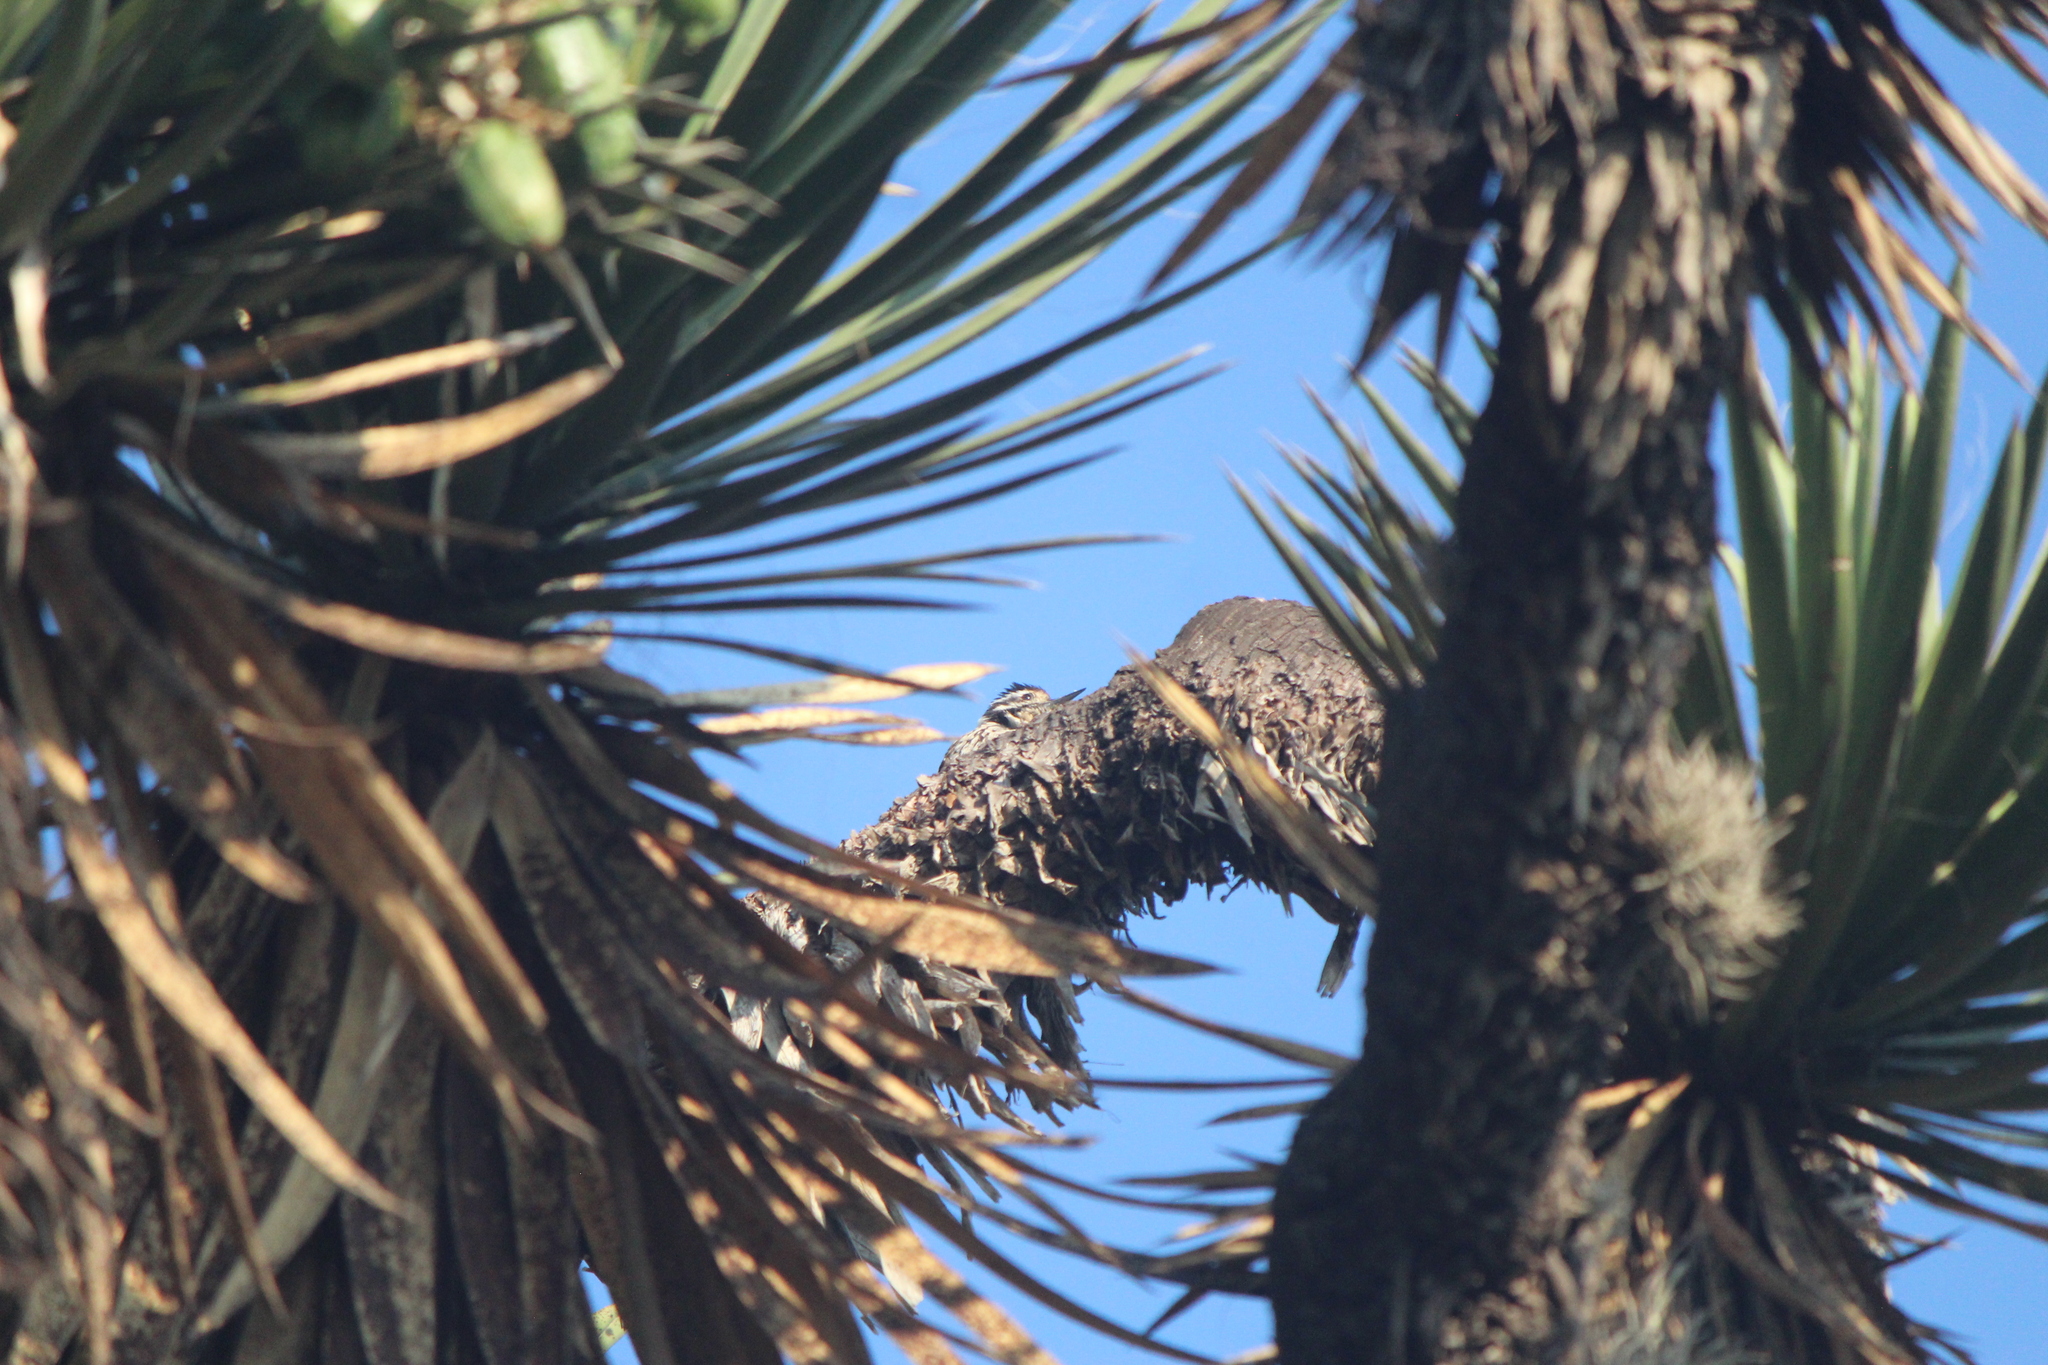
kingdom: Animalia
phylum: Chordata
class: Aves
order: Piciformes
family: Picidae
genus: Dryobates
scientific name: Dryobates scalaris
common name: Ladder-backed woodpecker
